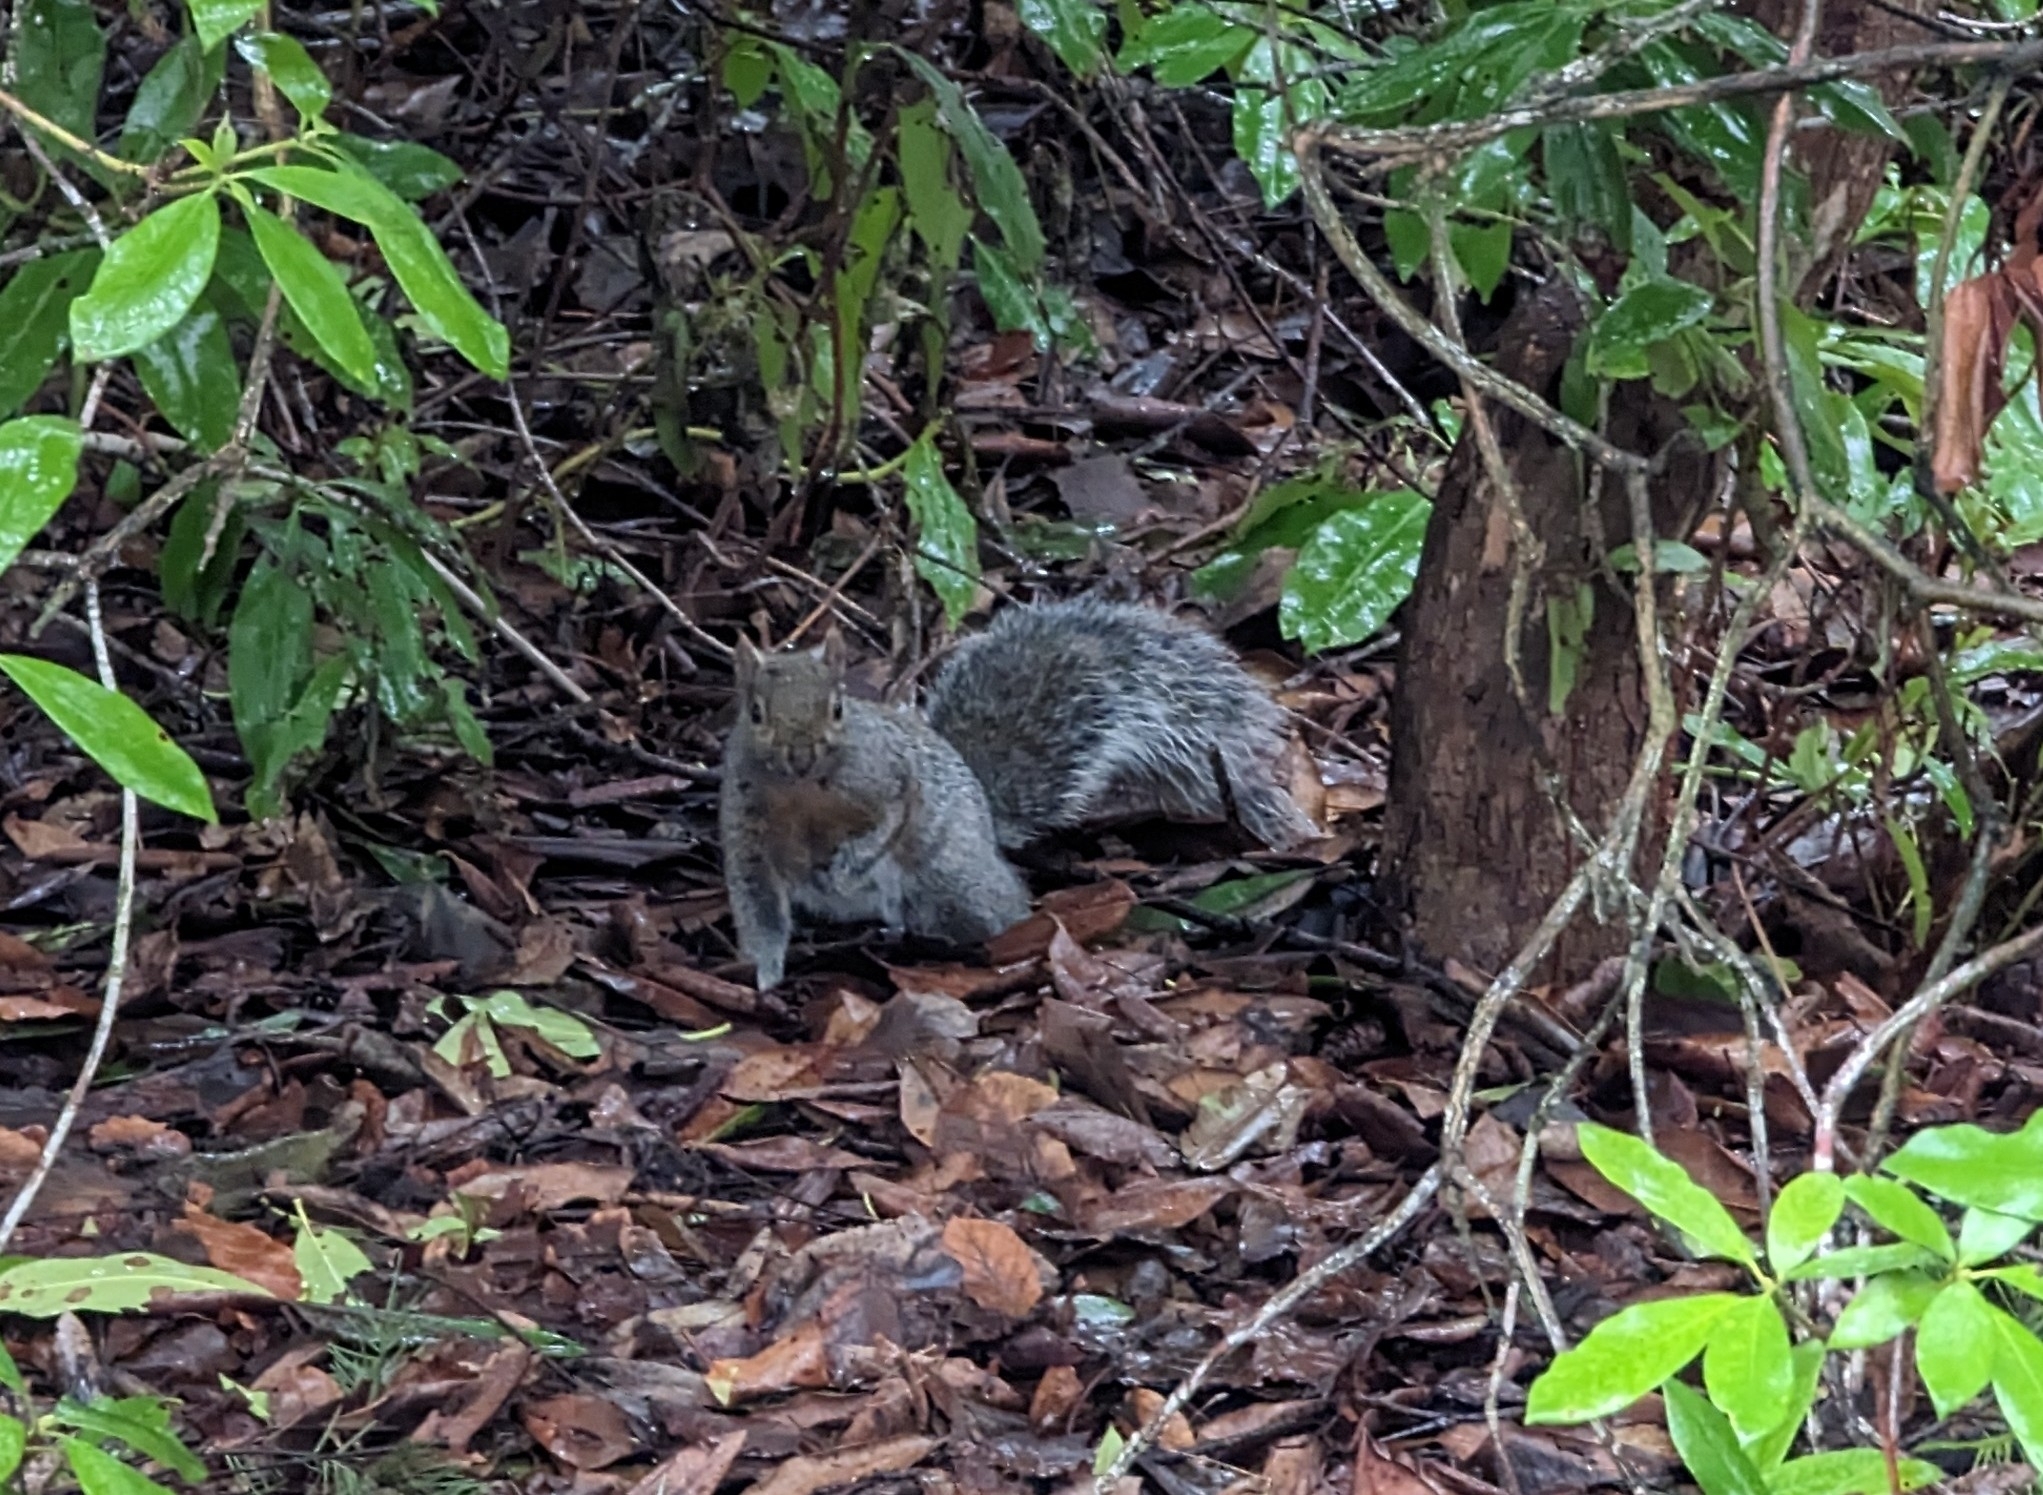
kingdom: Animalia
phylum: Chordata
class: Mammalia
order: Rodentia
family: Sciuridae
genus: Sciurus
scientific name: Sciurus carolinensis
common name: Eastern gray squirrel
